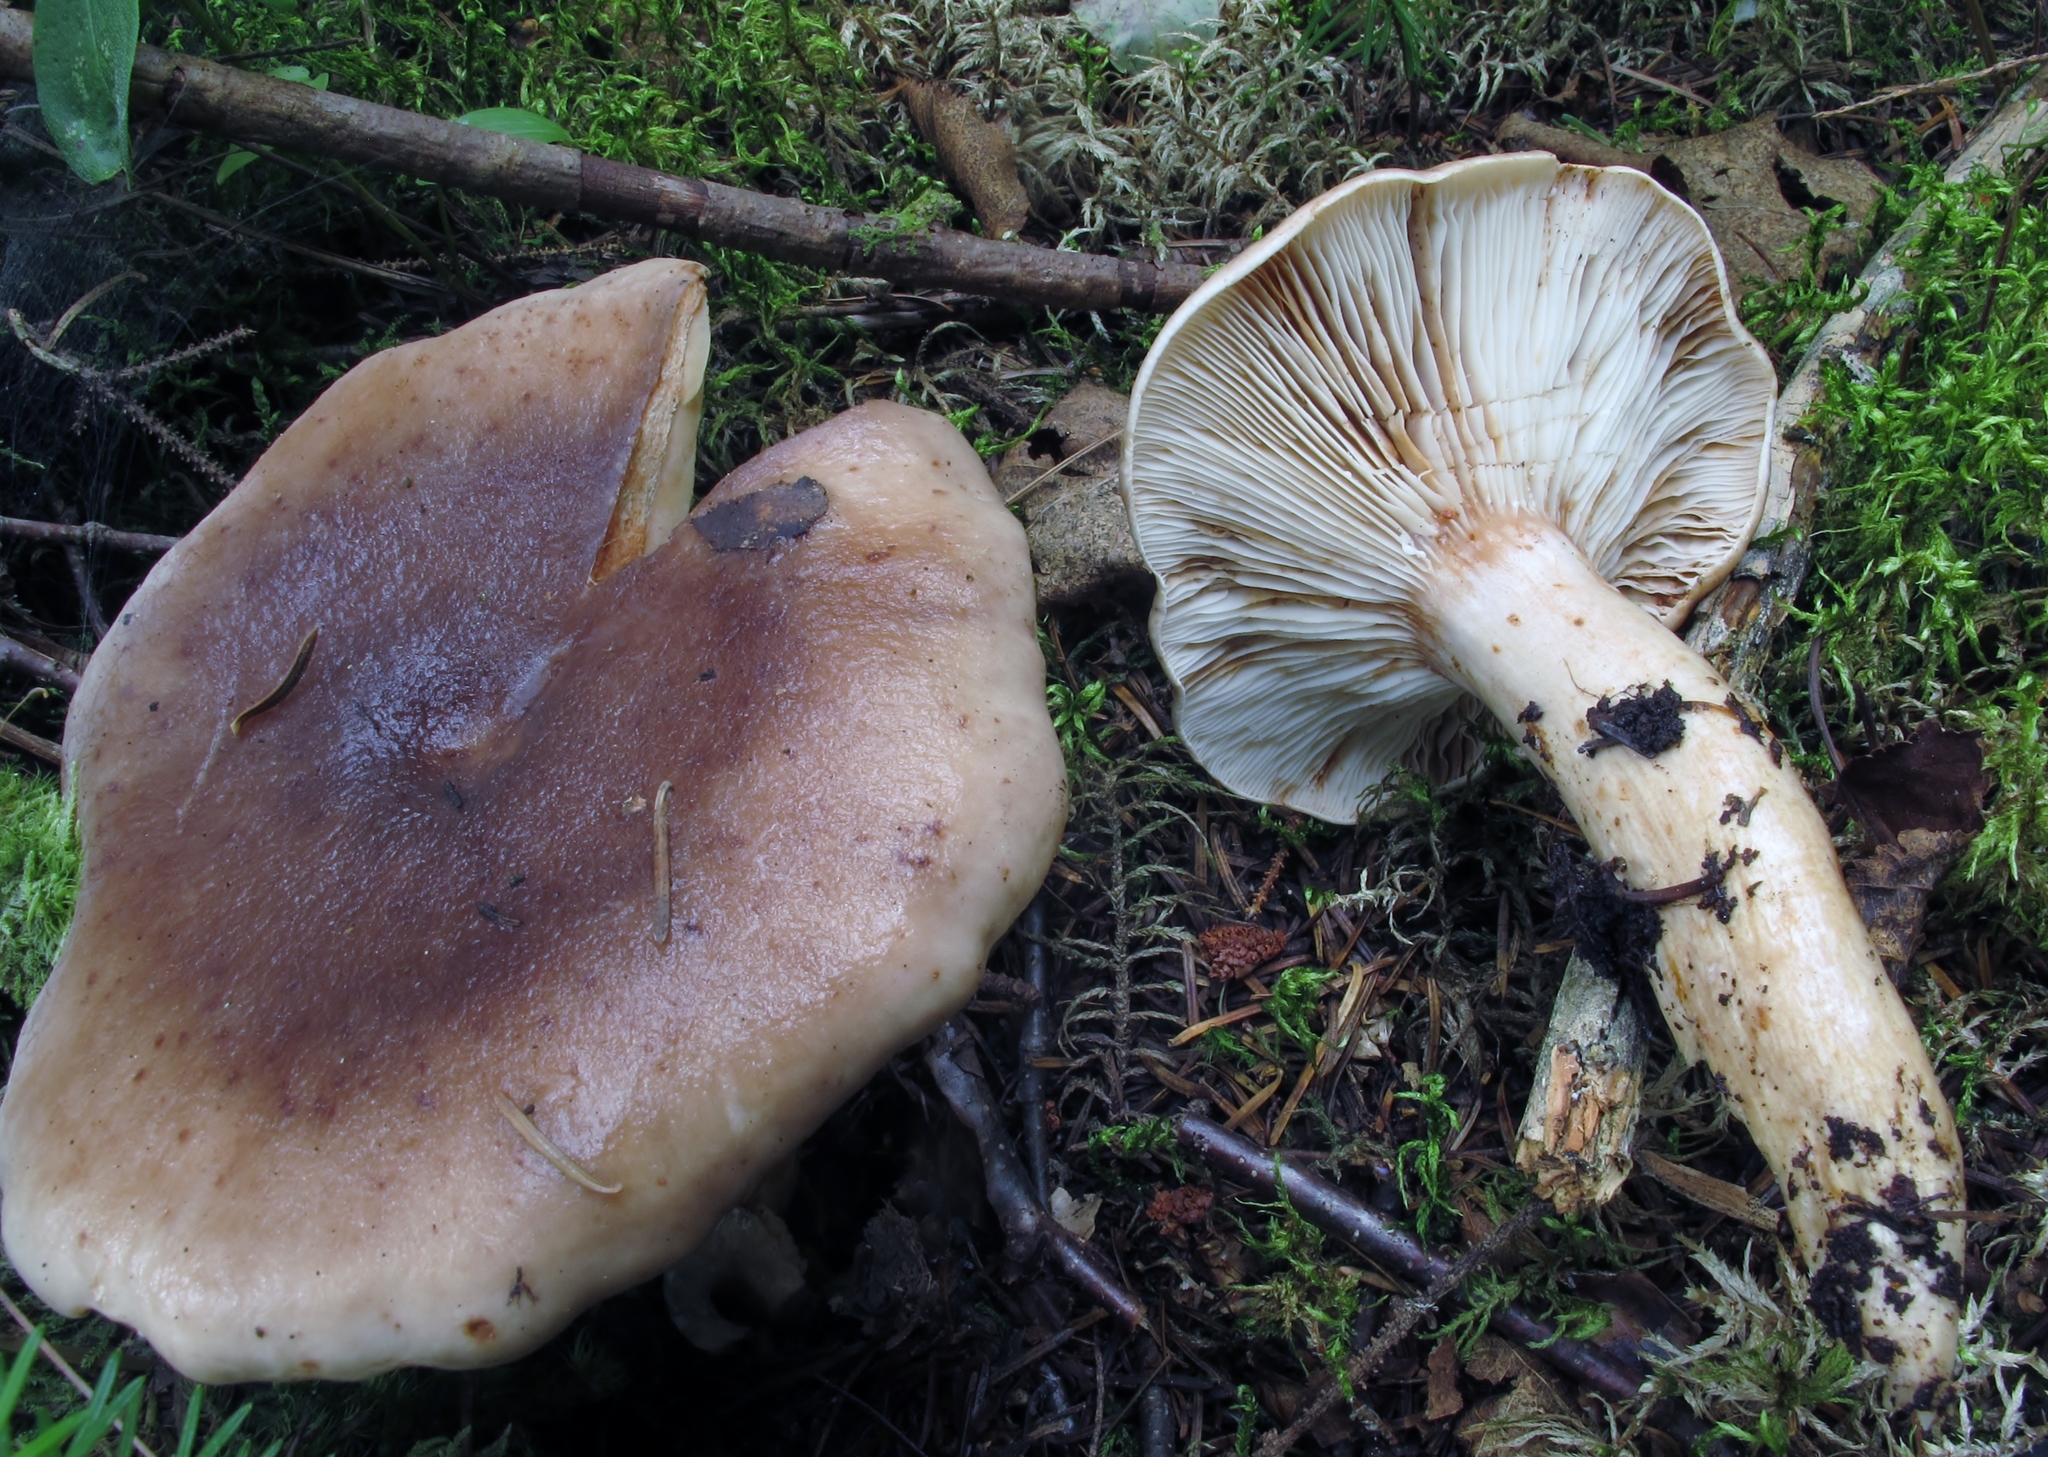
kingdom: Fungi
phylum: Basidiomycota
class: Agaricomycetes
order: Russulales
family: Russulaceae
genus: Lactarius
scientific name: Lactarius mucidus
